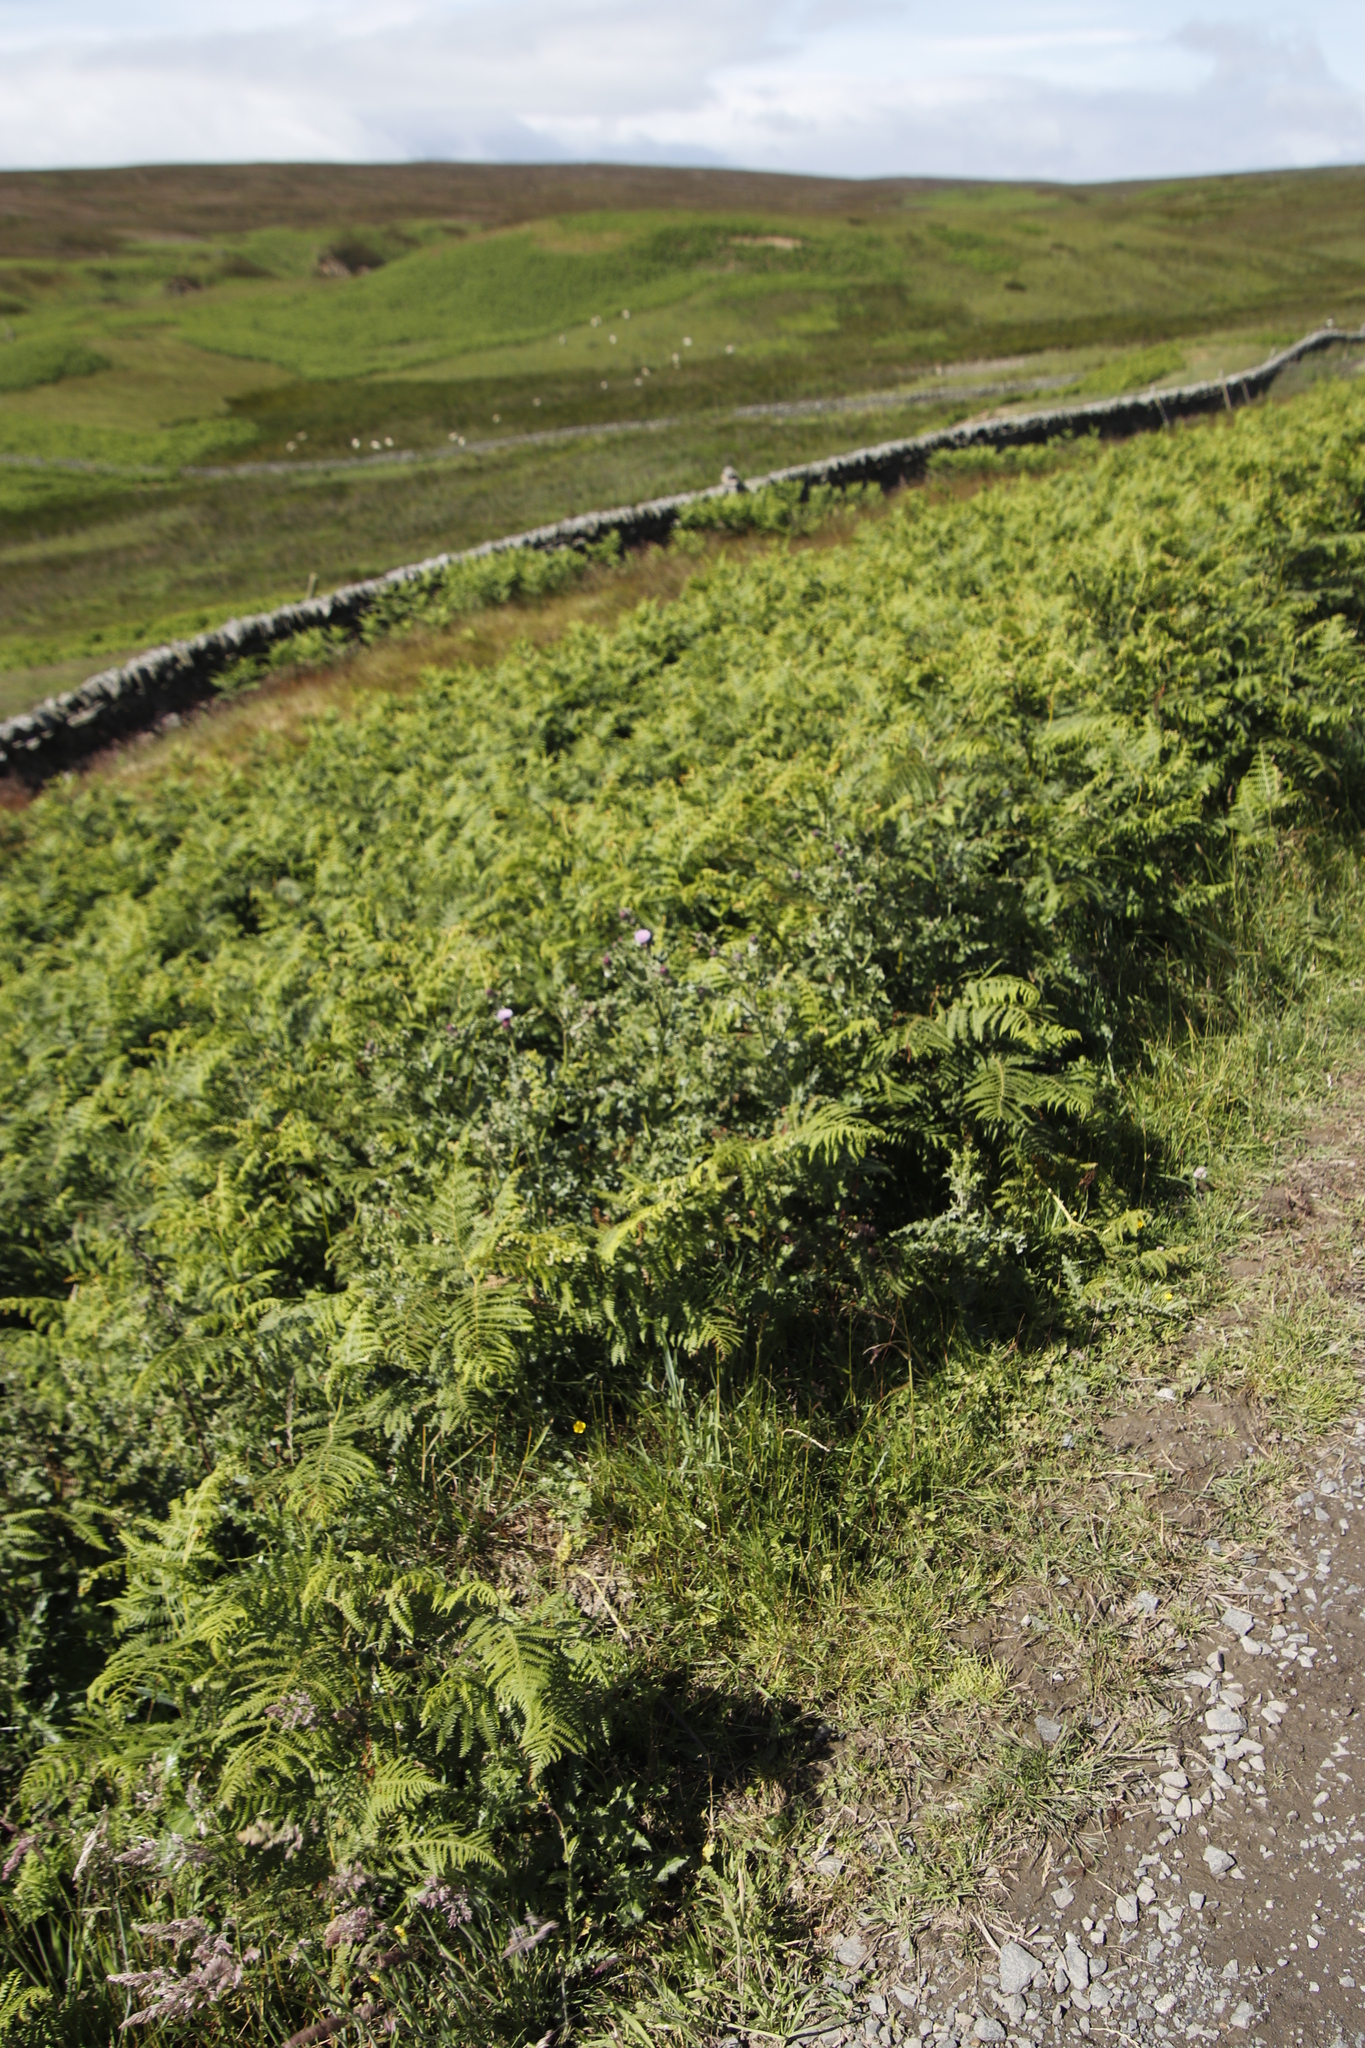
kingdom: Plantae
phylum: Tracheophyta
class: Polypodiopsida
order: Polypodiales
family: Dennstaedtiaceae
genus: Pteridium
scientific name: Pteridium aquilinum
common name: Bracken
